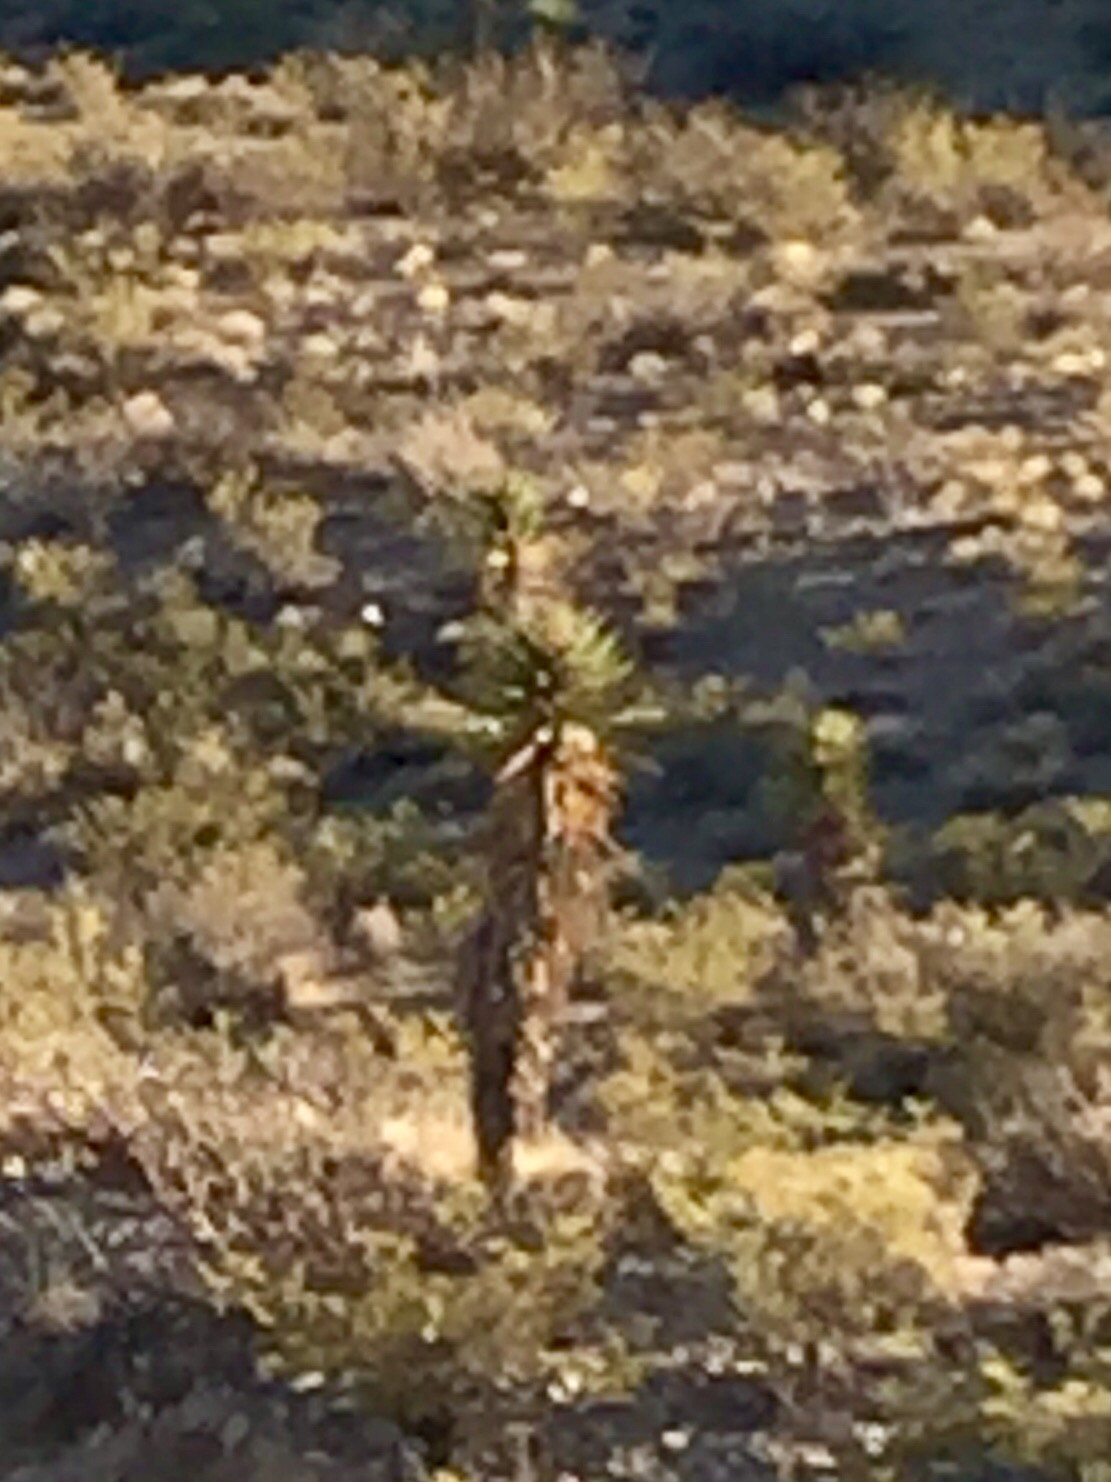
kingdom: Plantae
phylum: Tracheophyta
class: Liliopsida
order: Asparagales
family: Asparagaceae
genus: Yucca
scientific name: Yucca treculiana
